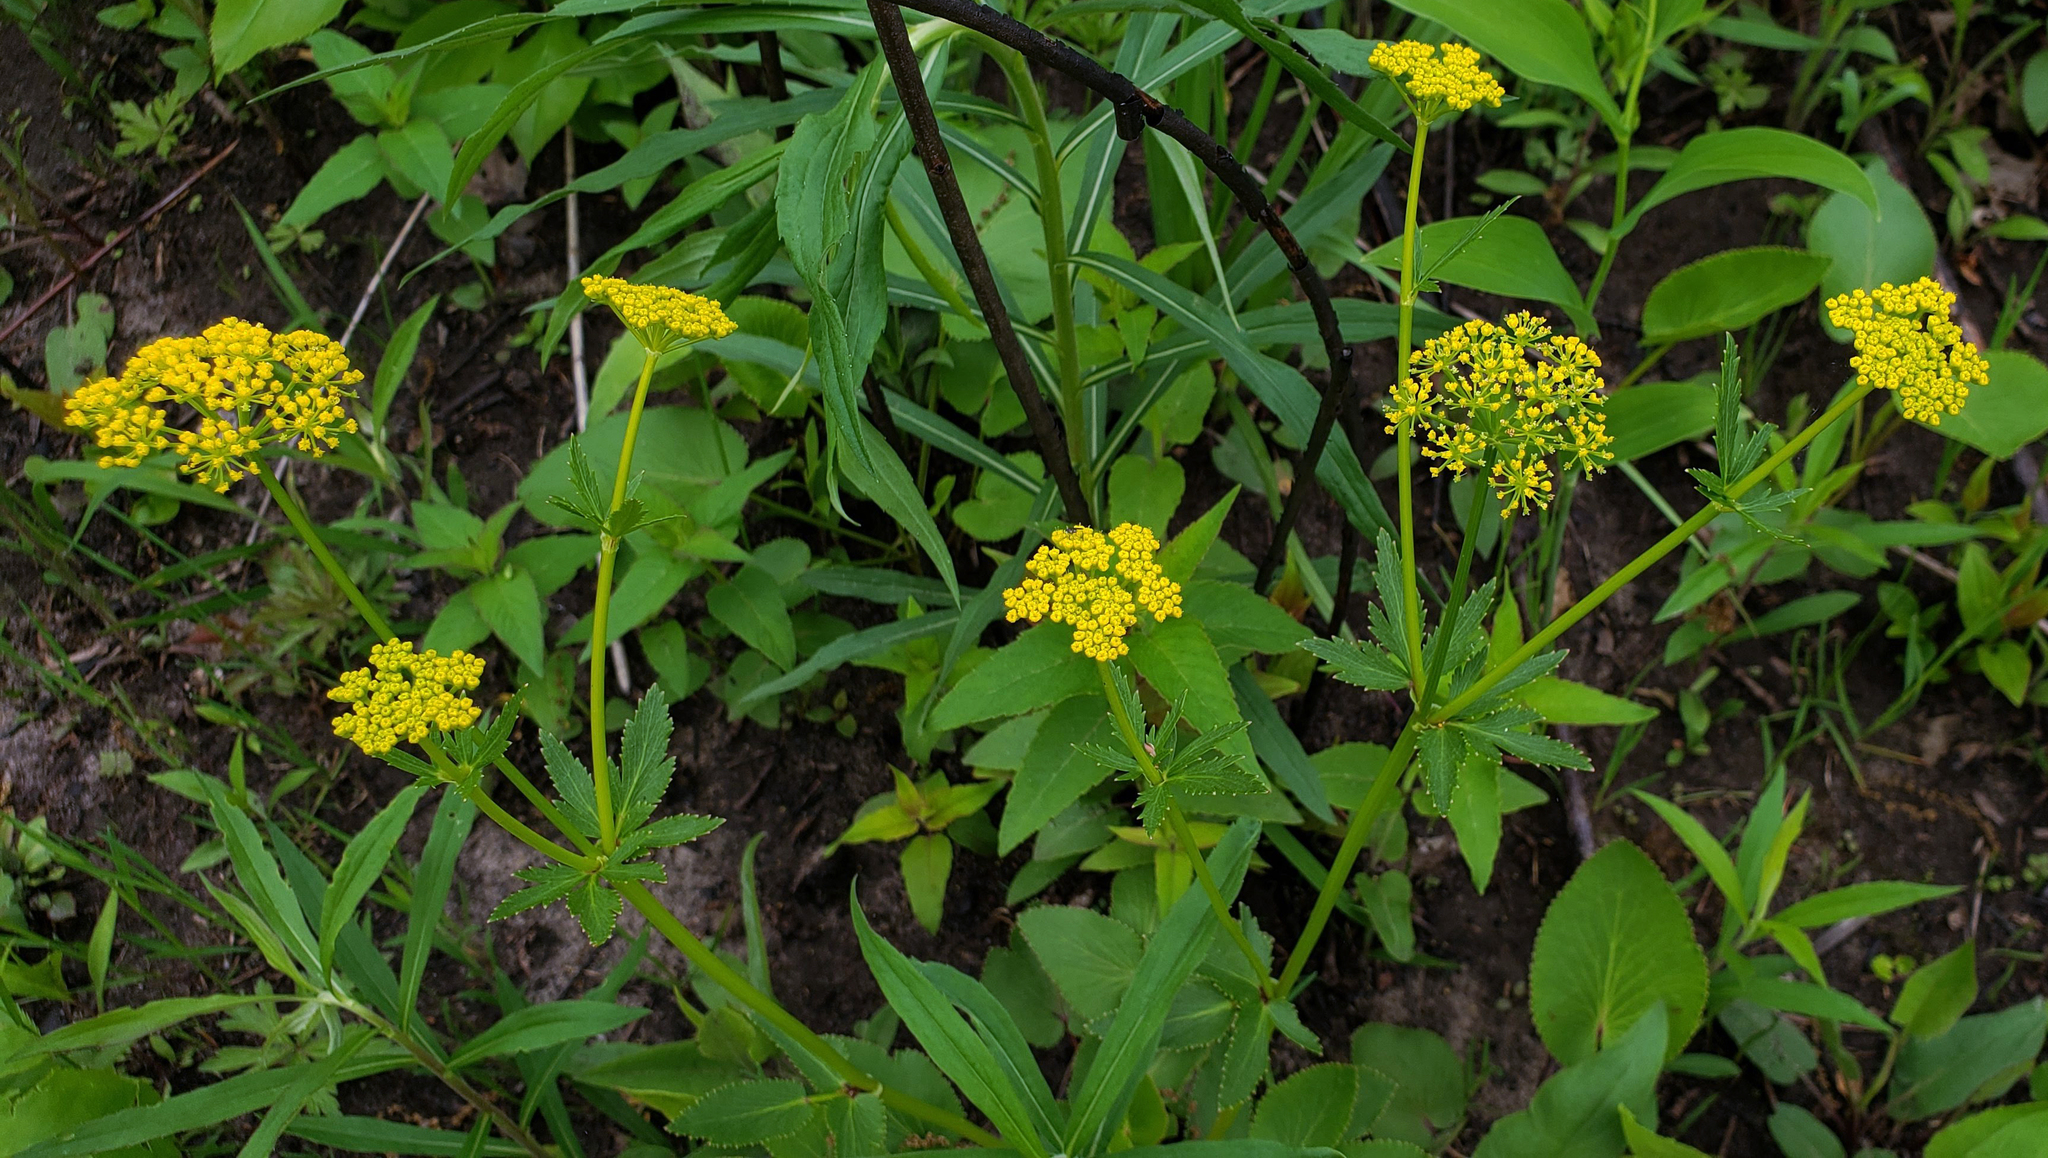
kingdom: Plantae
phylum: Tracheophyta
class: Magnoliopsida
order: Apiales
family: Apiaceae
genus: Zizia
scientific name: Zizia aptera
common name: Heart-leaved alexanders
